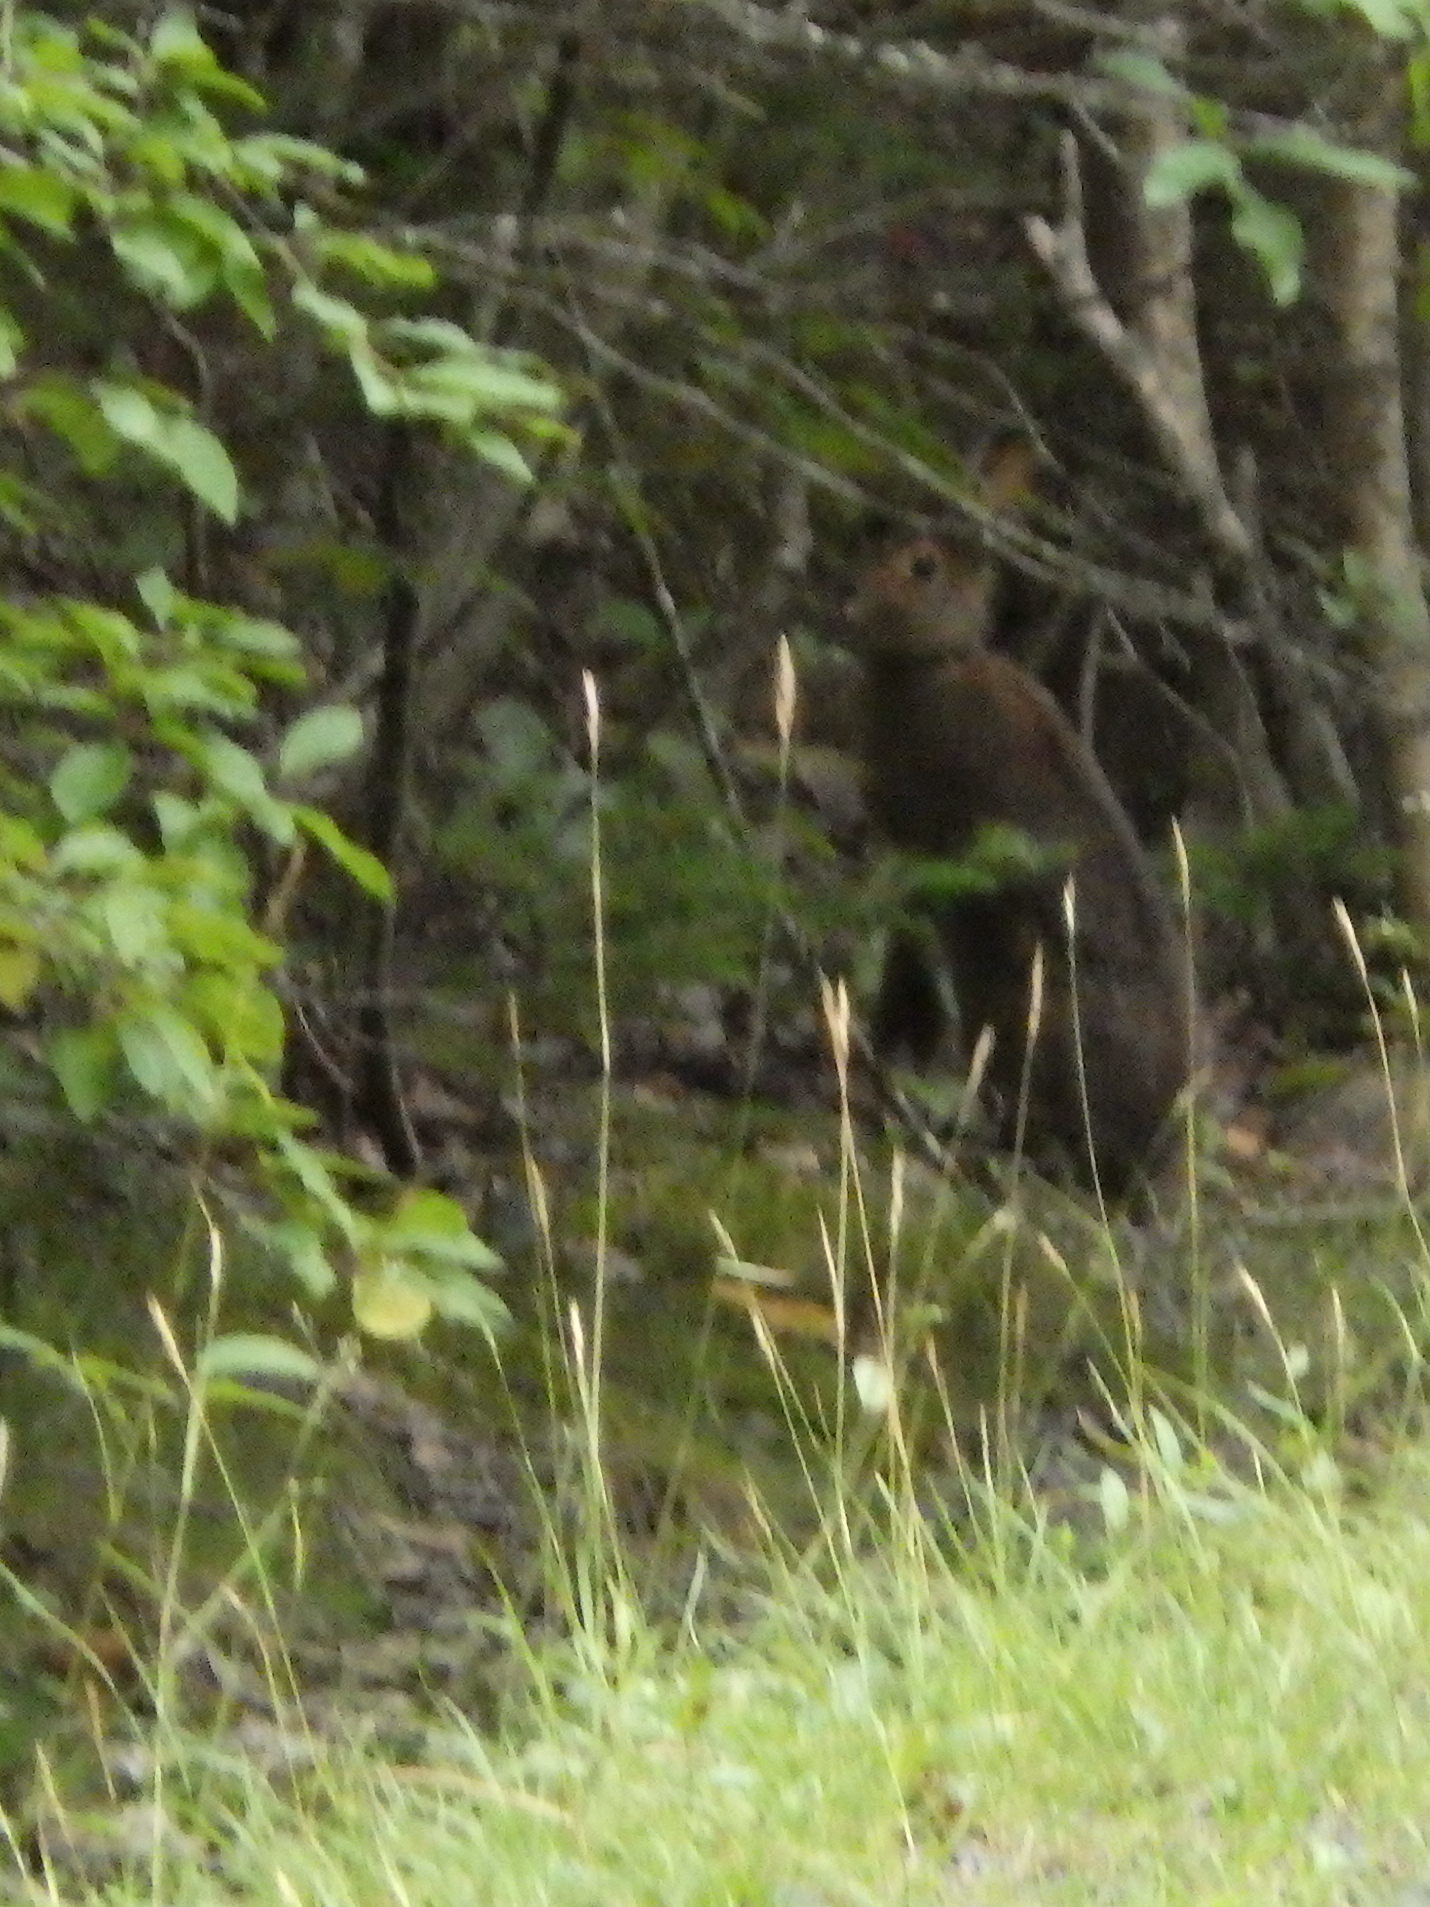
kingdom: Animalia
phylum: Chordata
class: Mammalia
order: Lagomorpha
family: Leporidae
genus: Lepus
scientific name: Lepus americanus
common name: Snowshoe hare
